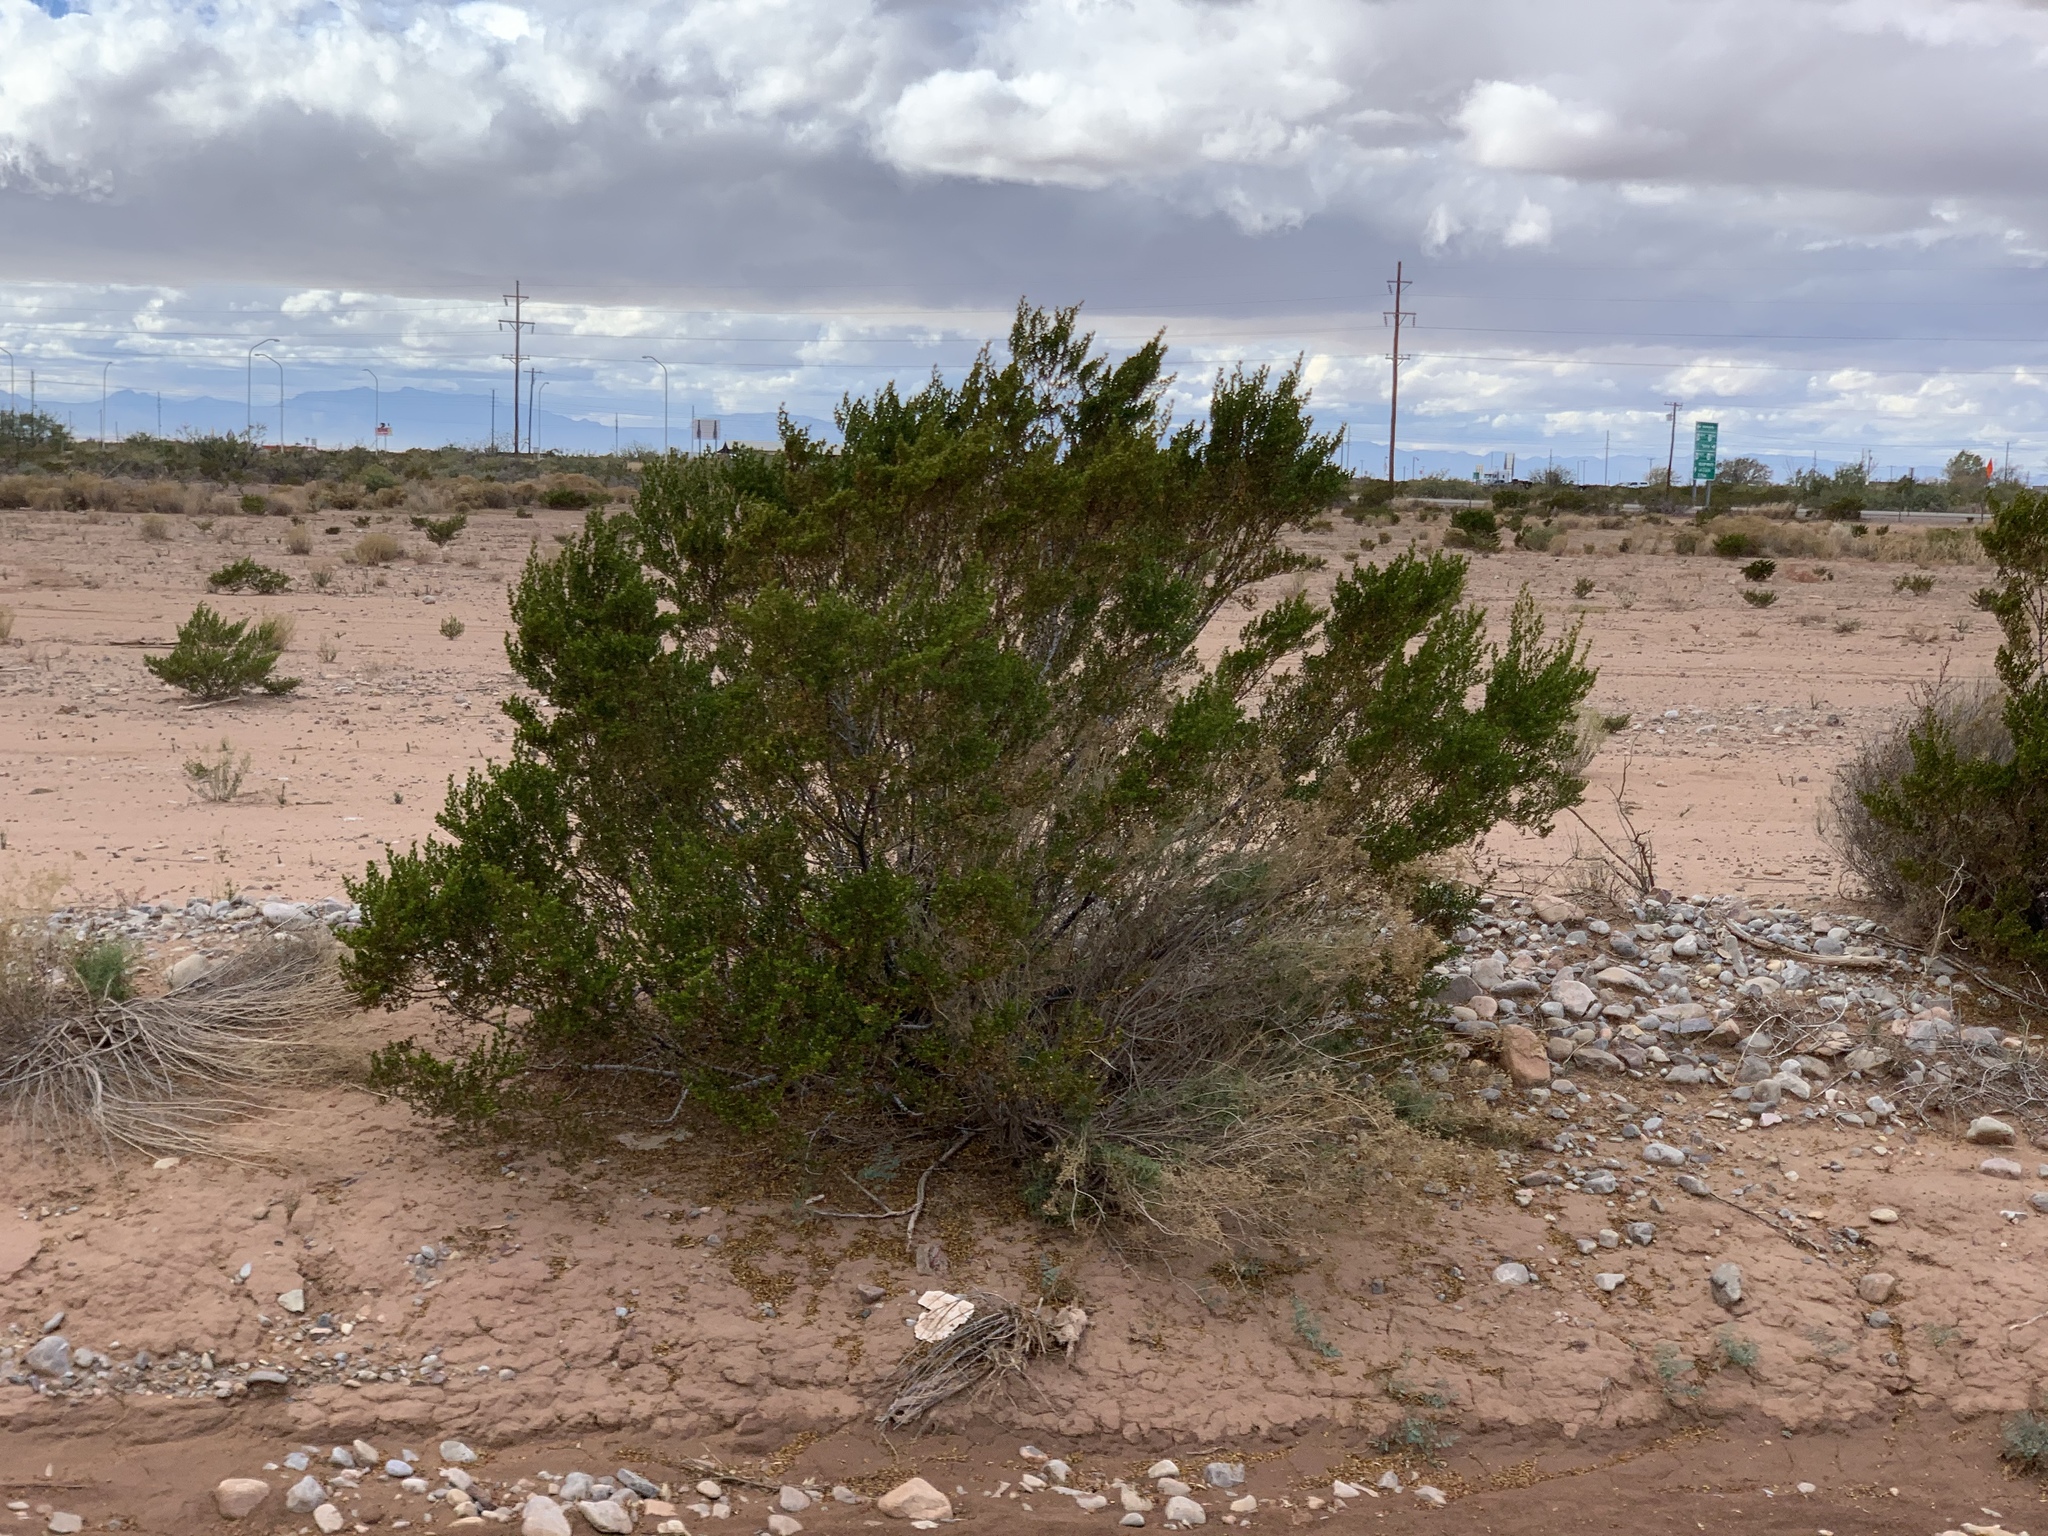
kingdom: Plantae
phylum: Tracheophyta
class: Magnoliopsida
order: Zygophyllales
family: Zygophyllaceae
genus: Larrea
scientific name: Larrea tridentata
